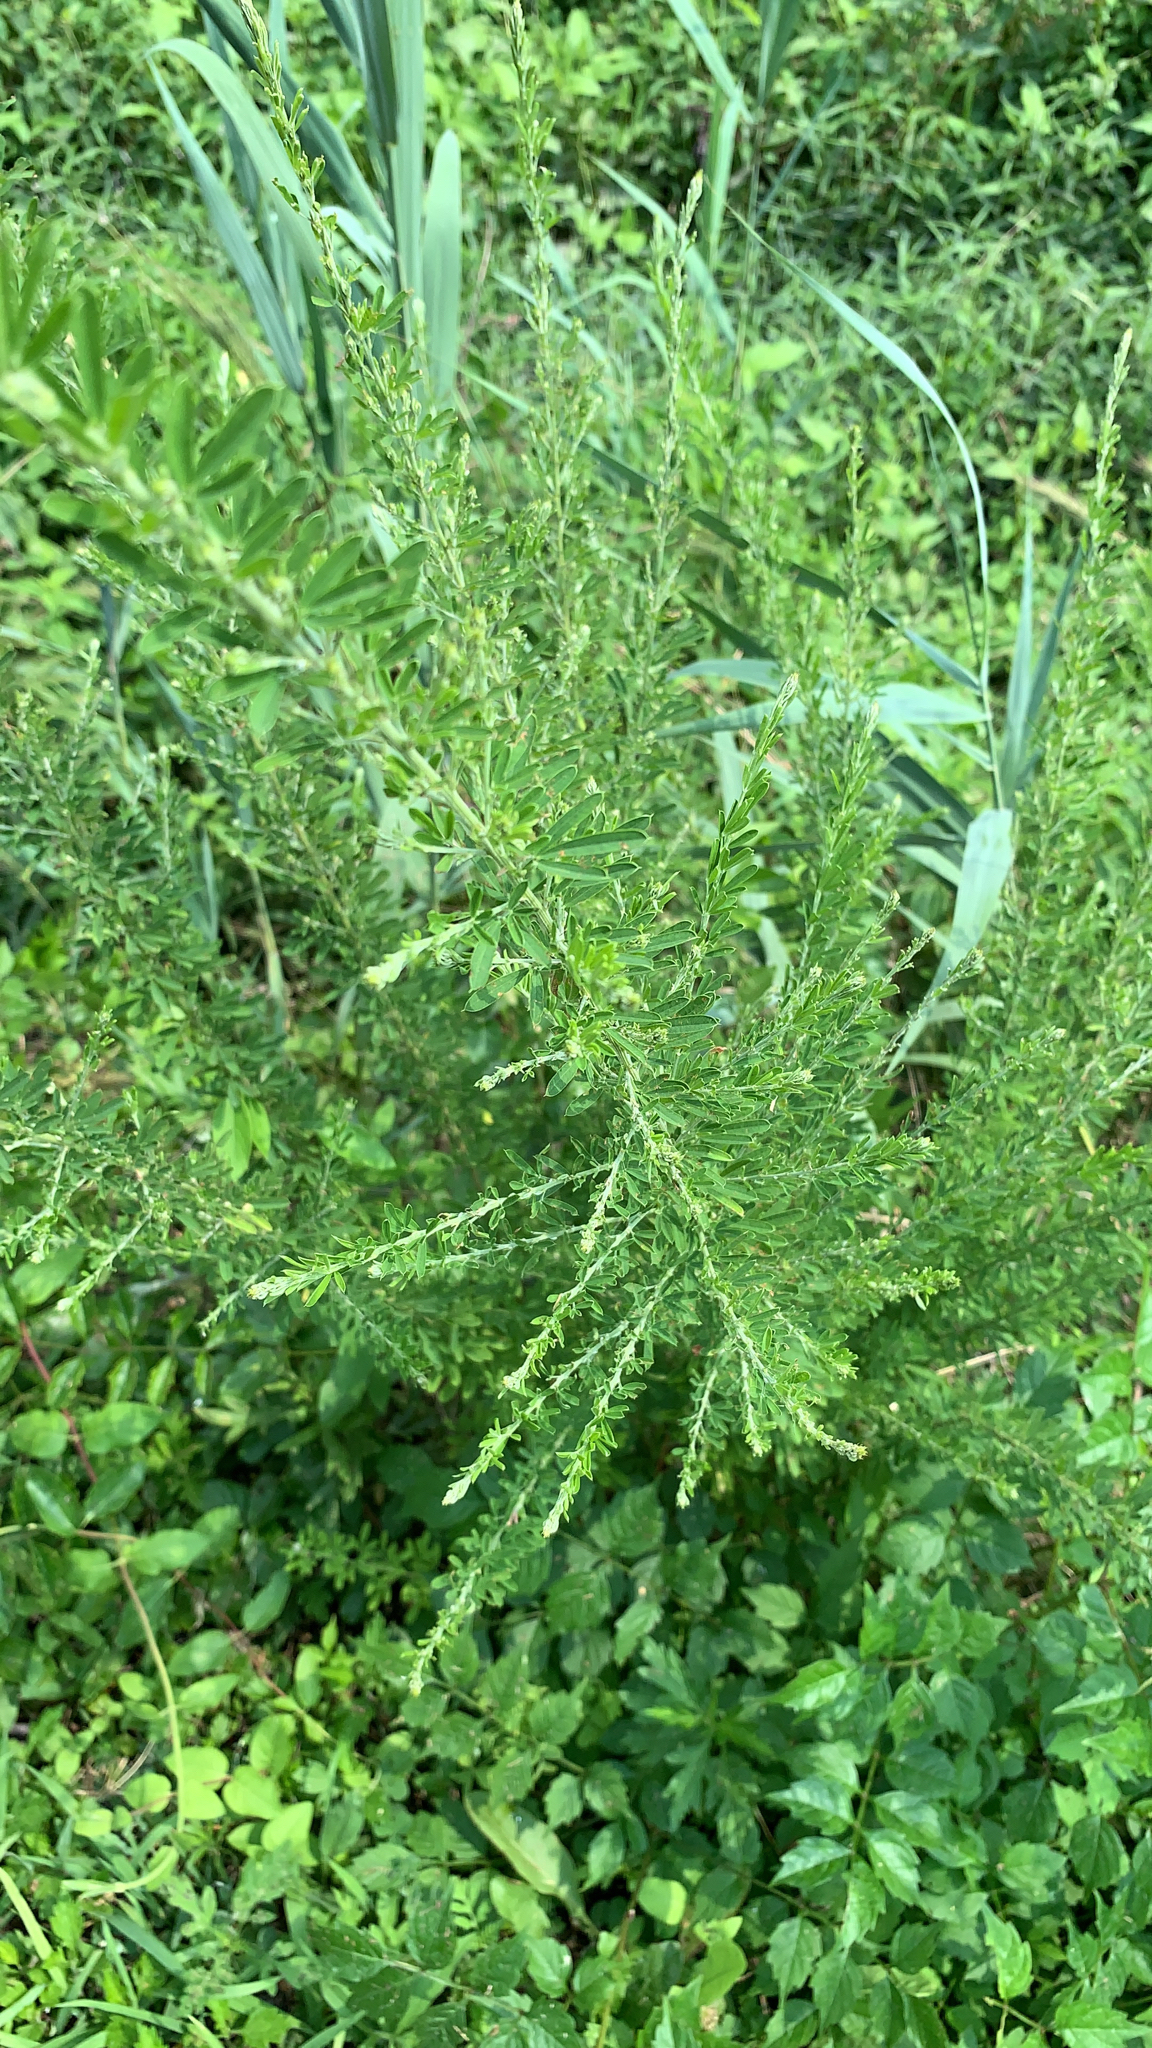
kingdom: Plantae
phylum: Tracheophyta
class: Magnoliopsida
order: Fabales
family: Fabaceae
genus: Lespedeza
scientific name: Lespedeza cuneata
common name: Chinese bush-clover
